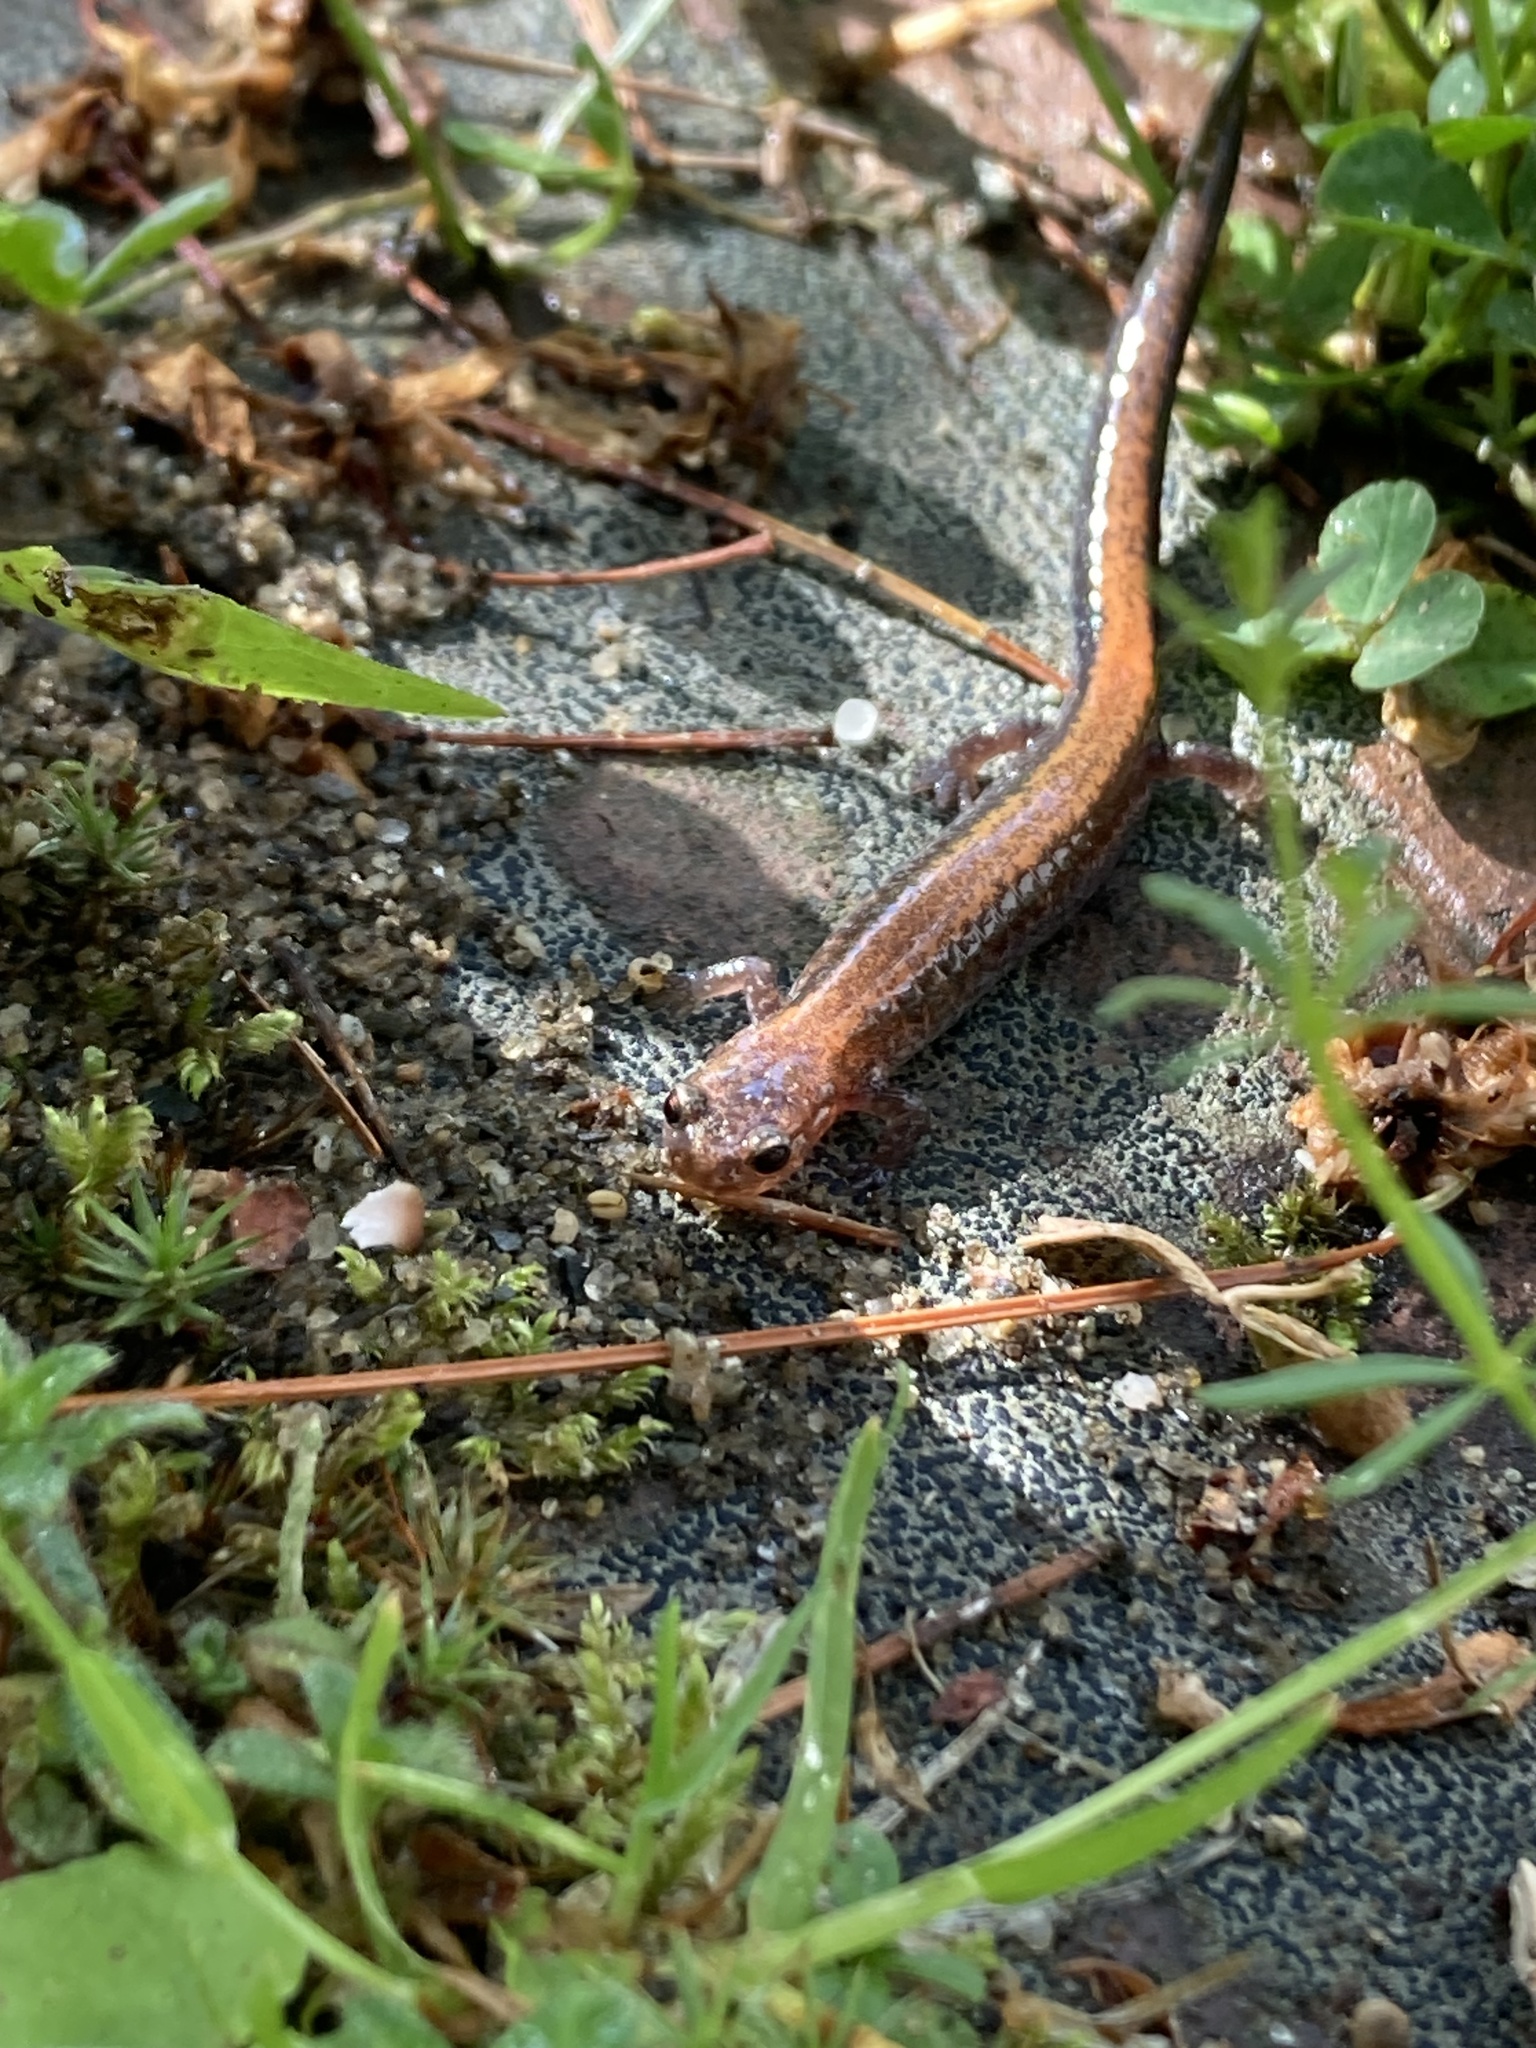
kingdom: Animalia
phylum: Chordata
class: Amphibia
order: Caudata
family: Plethodontidae
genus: Plethodon
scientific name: Plethodon cinereus
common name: Redback salamander
